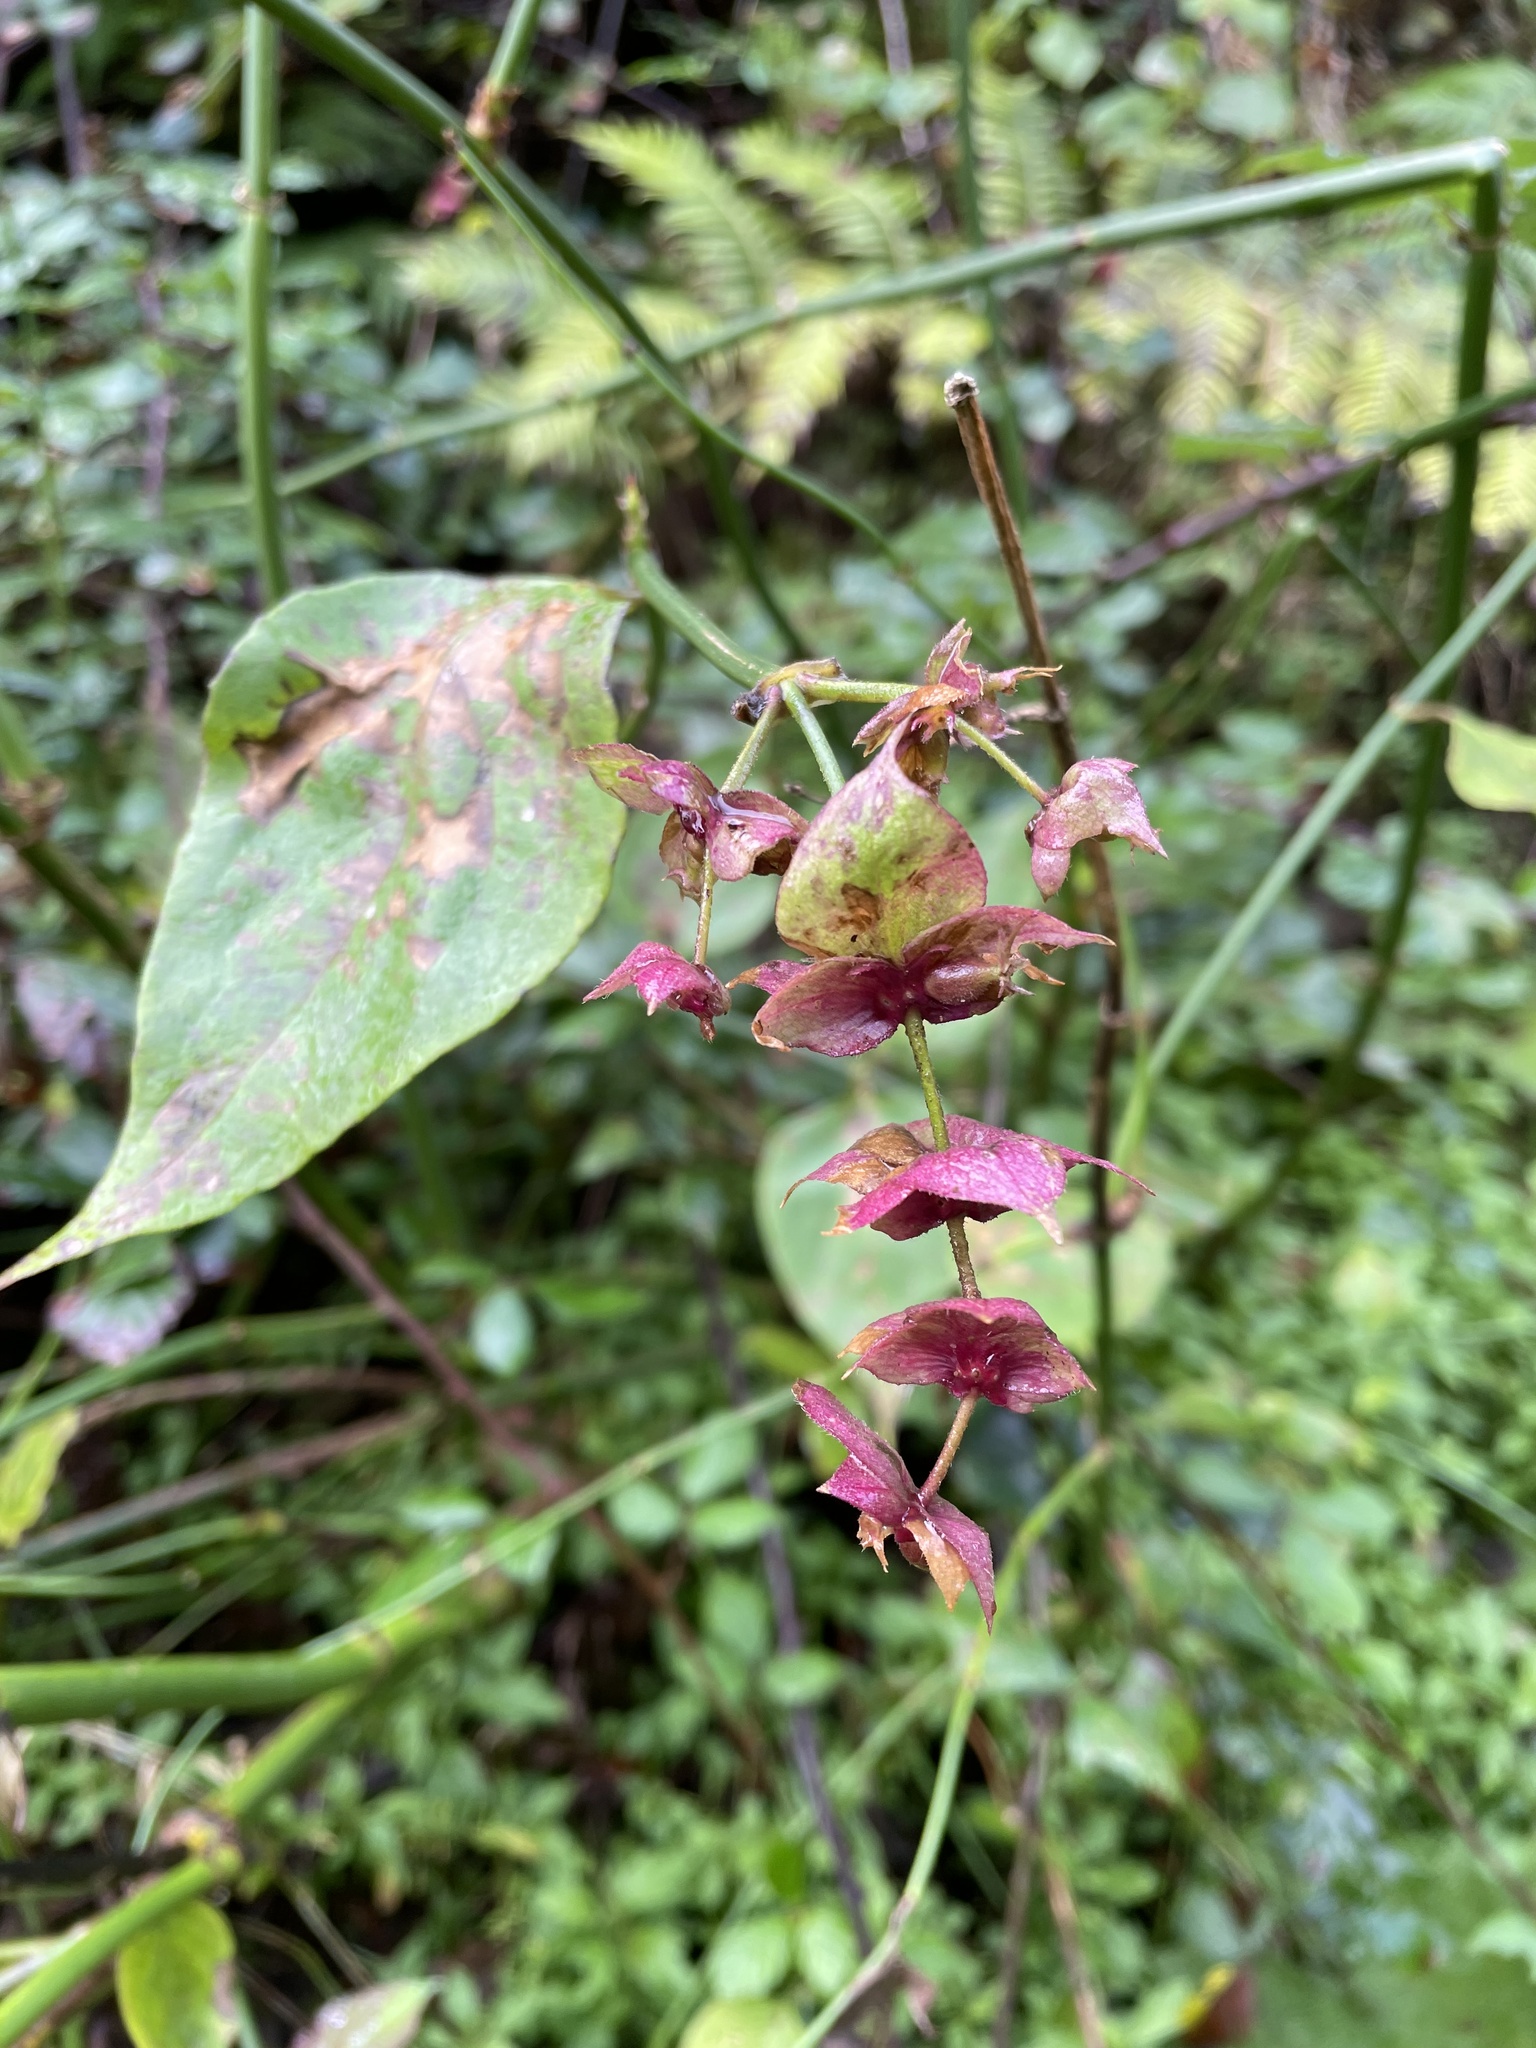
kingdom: Plantae
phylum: Tracheophyta
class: Magnoliopsida
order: Dipsacales
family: Caprifoliaceae
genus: Leycesteria
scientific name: Leycesteria formosa
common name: Himalayan honeysuckle
